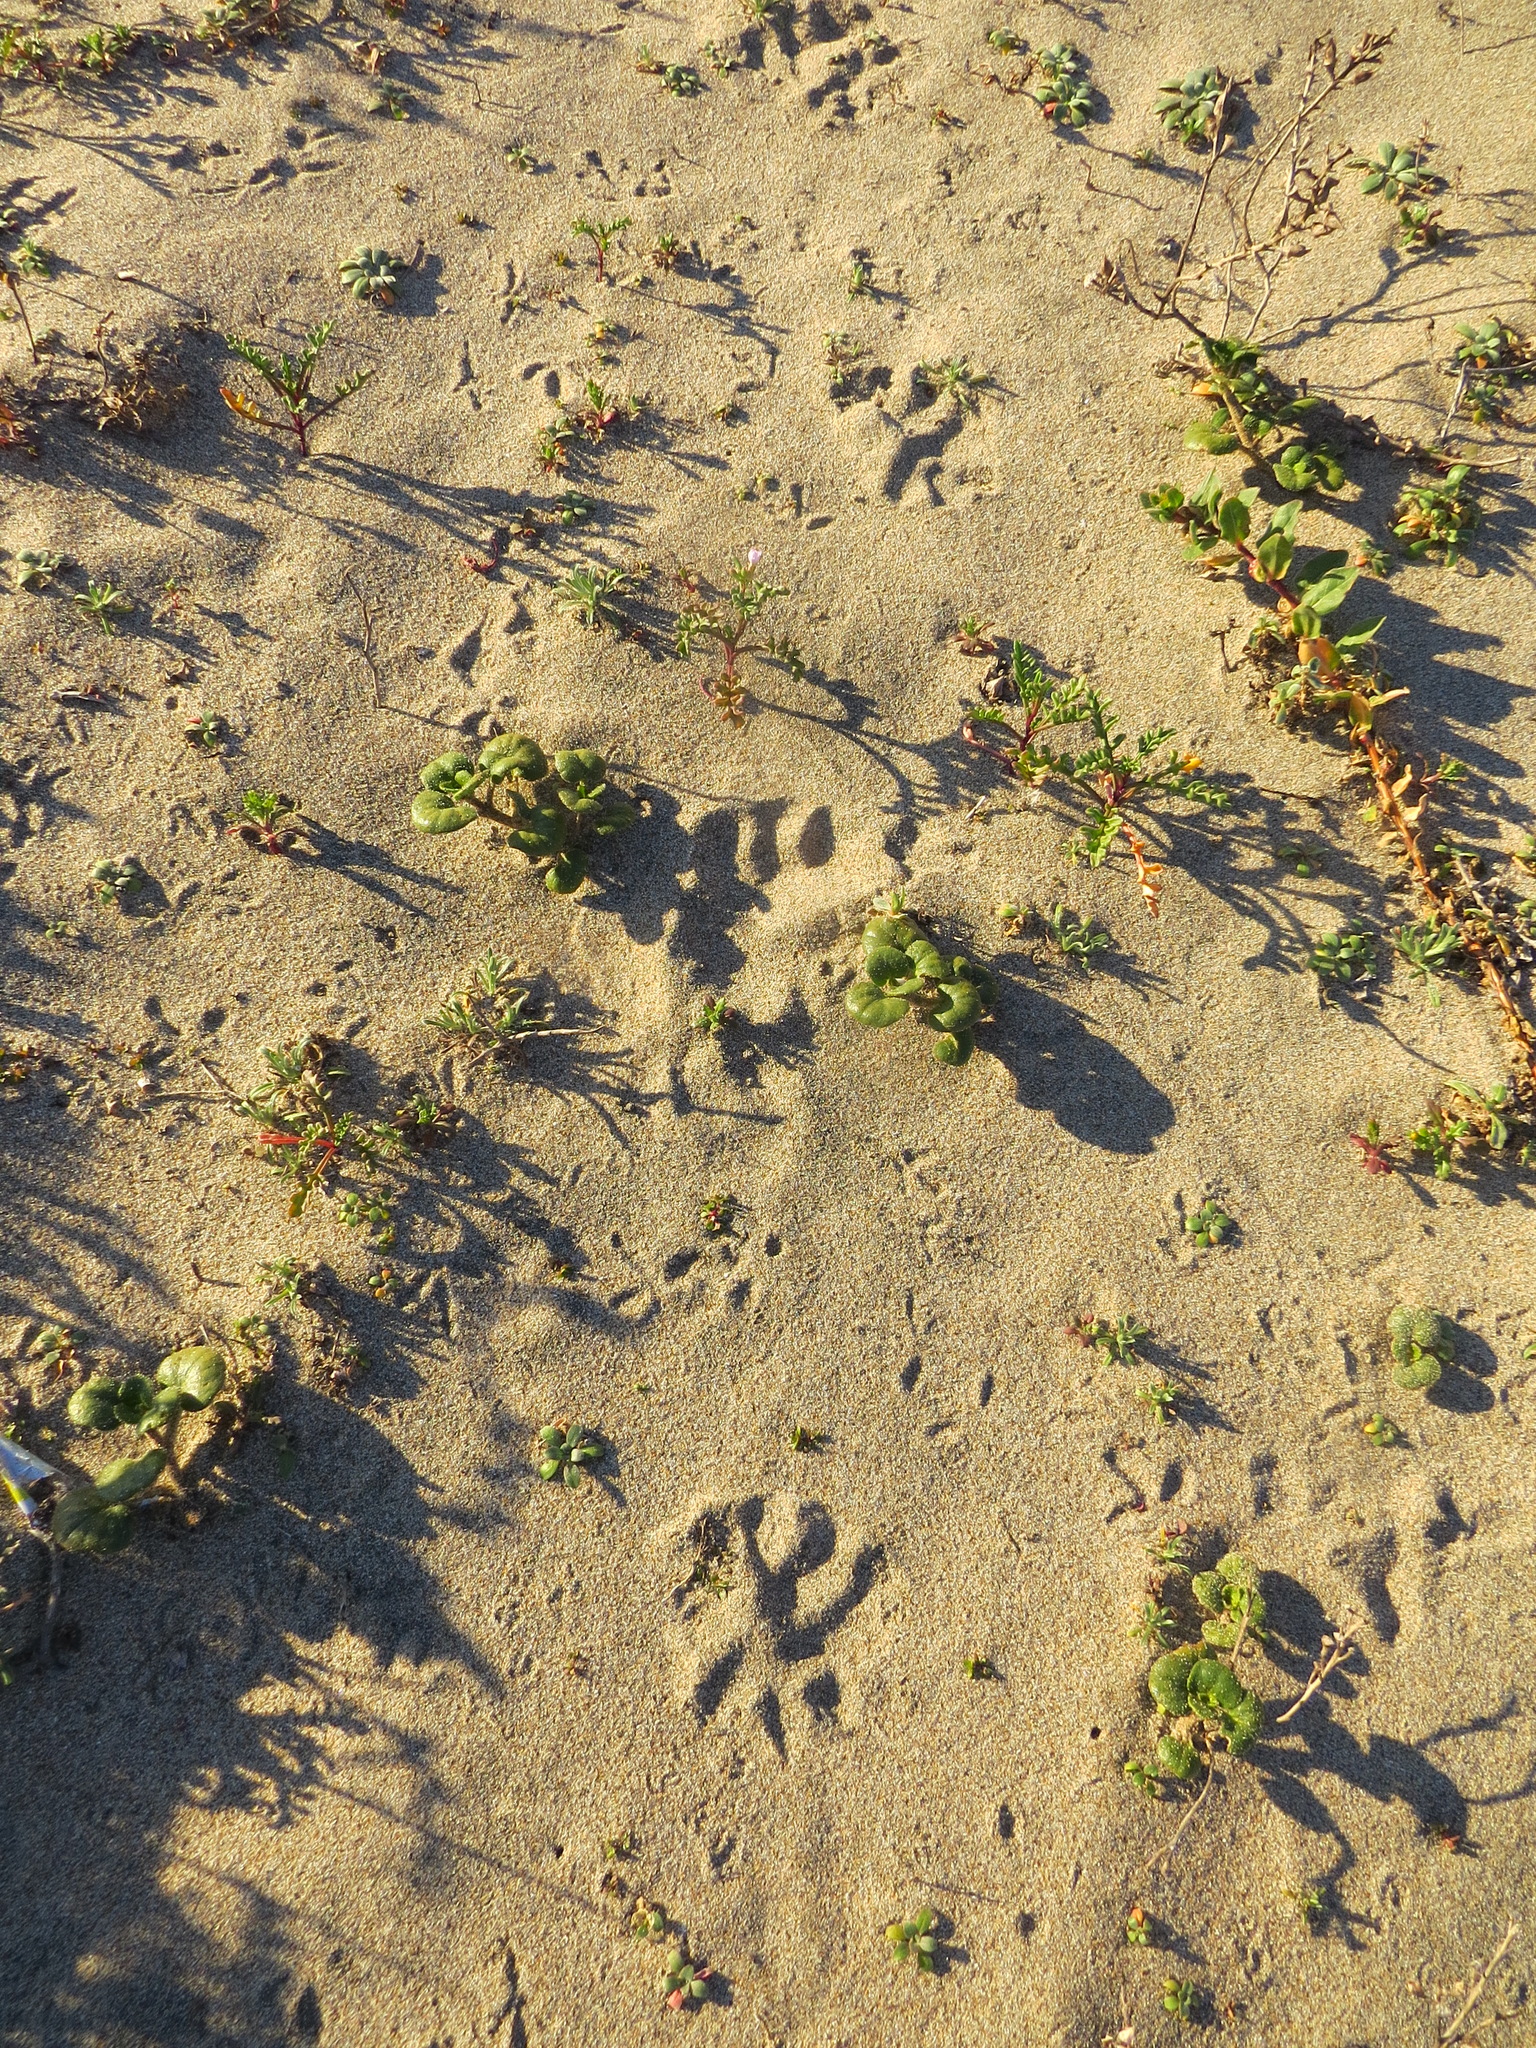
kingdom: Animalia
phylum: Chordata
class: Mammalia
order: Didelphimorphia
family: Didelphidae
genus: Didelphis
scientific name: Didelphis virginiana
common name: Virginia opossum
